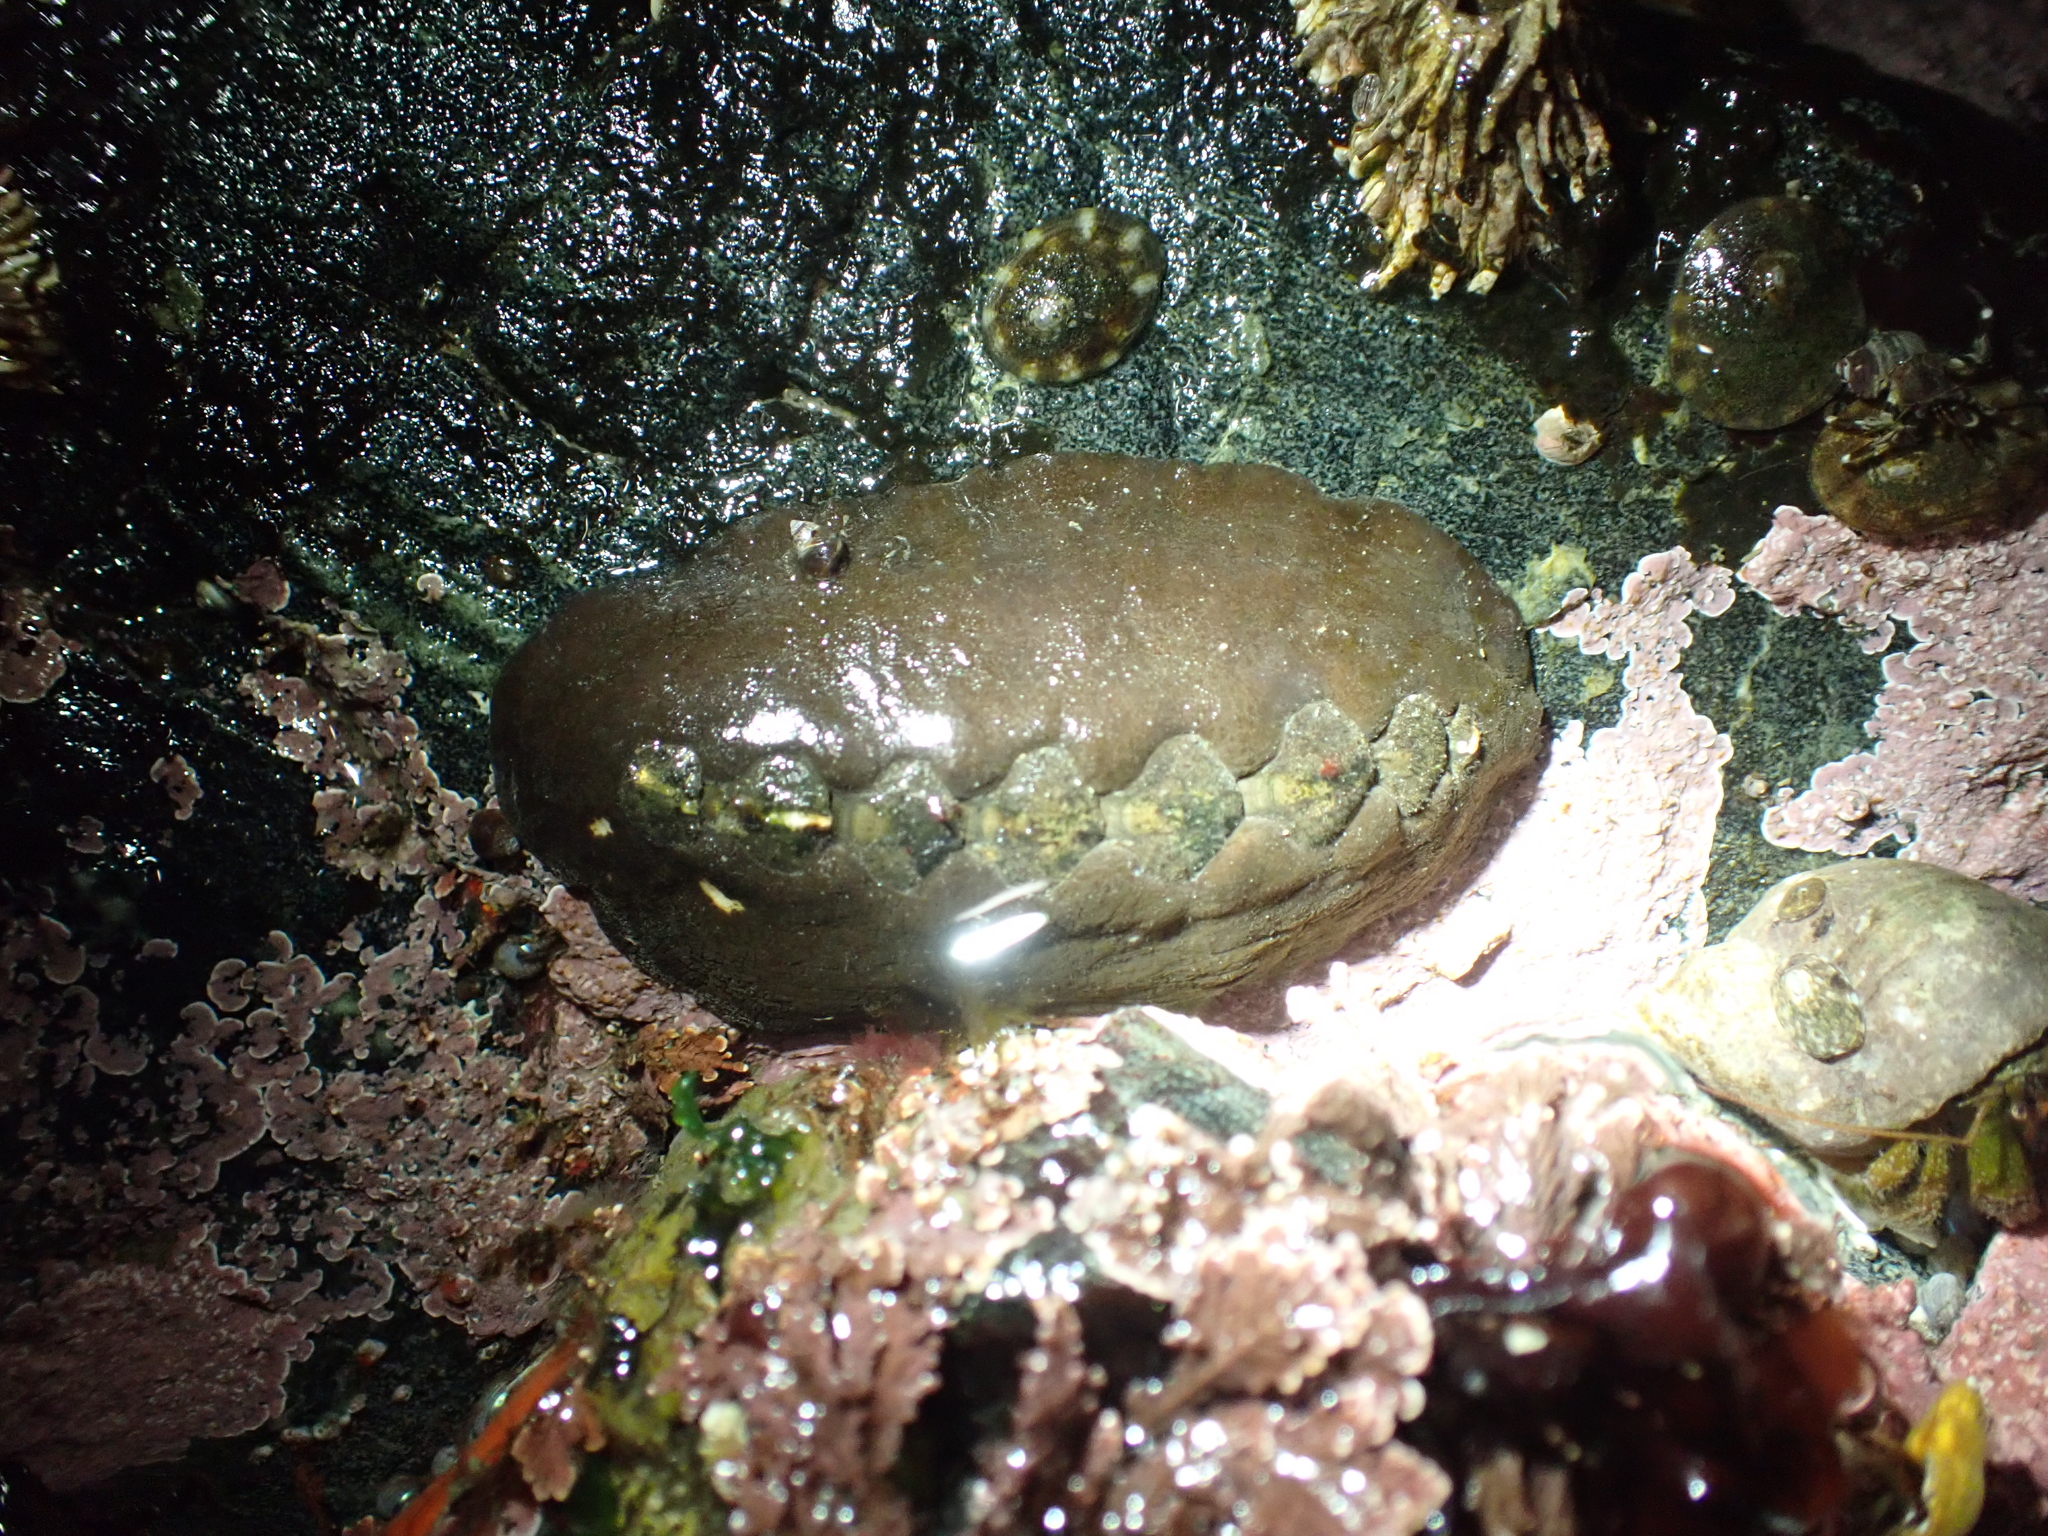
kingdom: Animalia
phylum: Mollusca
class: Polyplacophora
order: Chitonida
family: Mopaliidae
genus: Katharina
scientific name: Katharina tunicata
